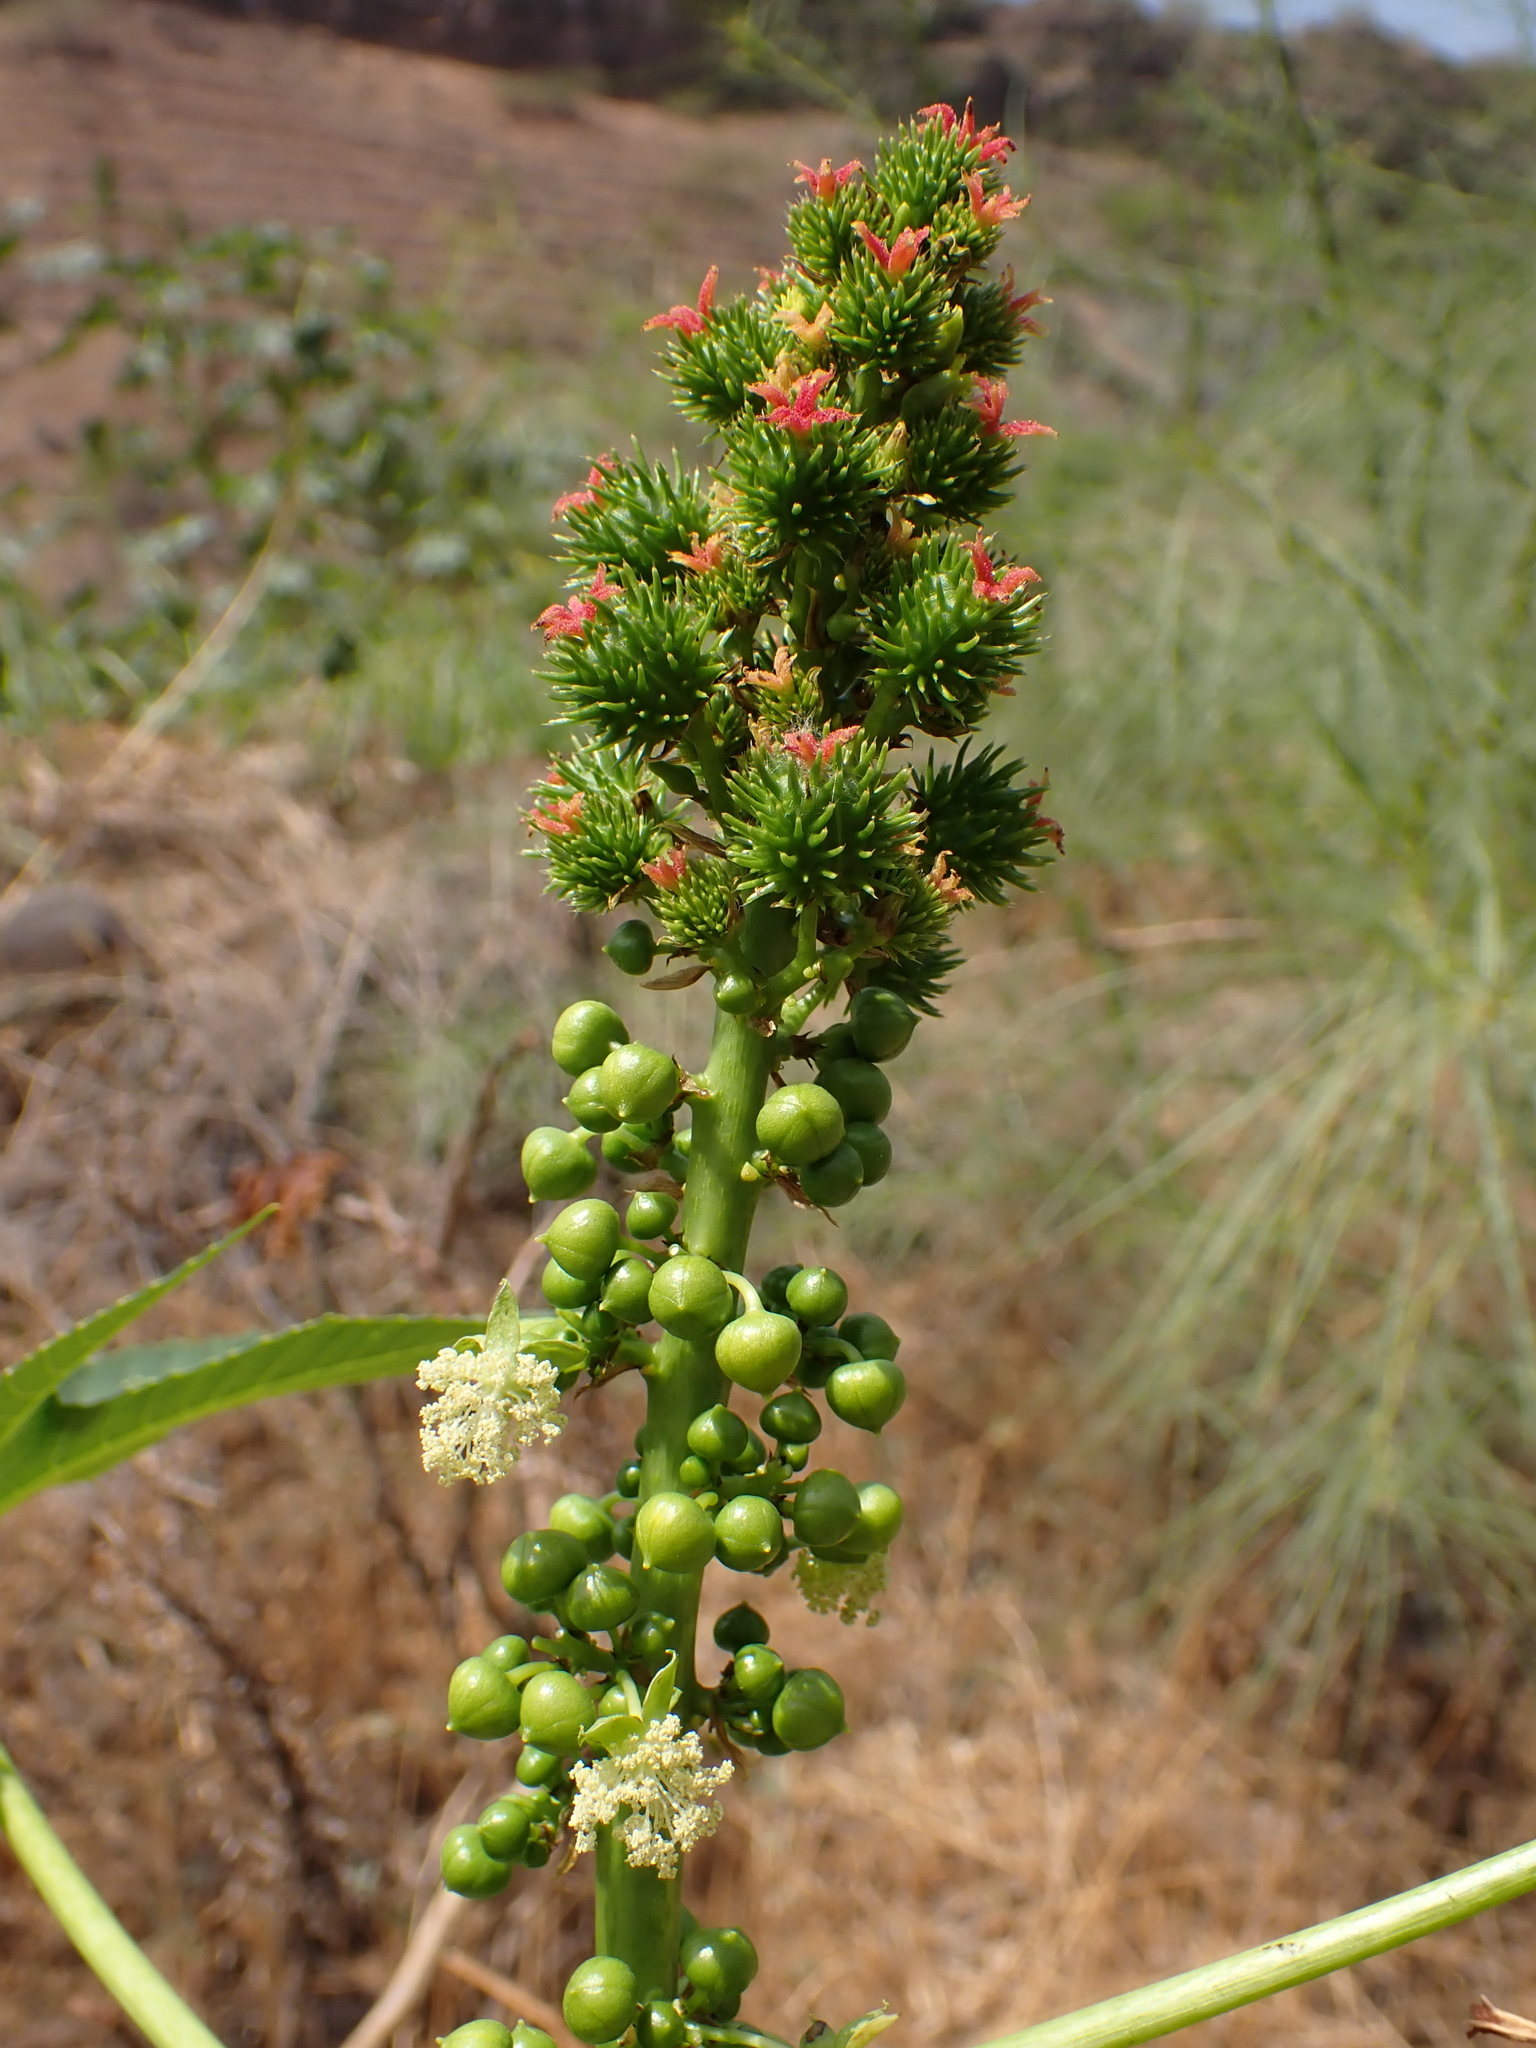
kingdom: Plantae
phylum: Tracheophyta
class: Magnoliopsida
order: Malpighiales
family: Euphorbiaceae
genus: Ricinus
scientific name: Ricinus communis
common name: Castor-oil-plant
